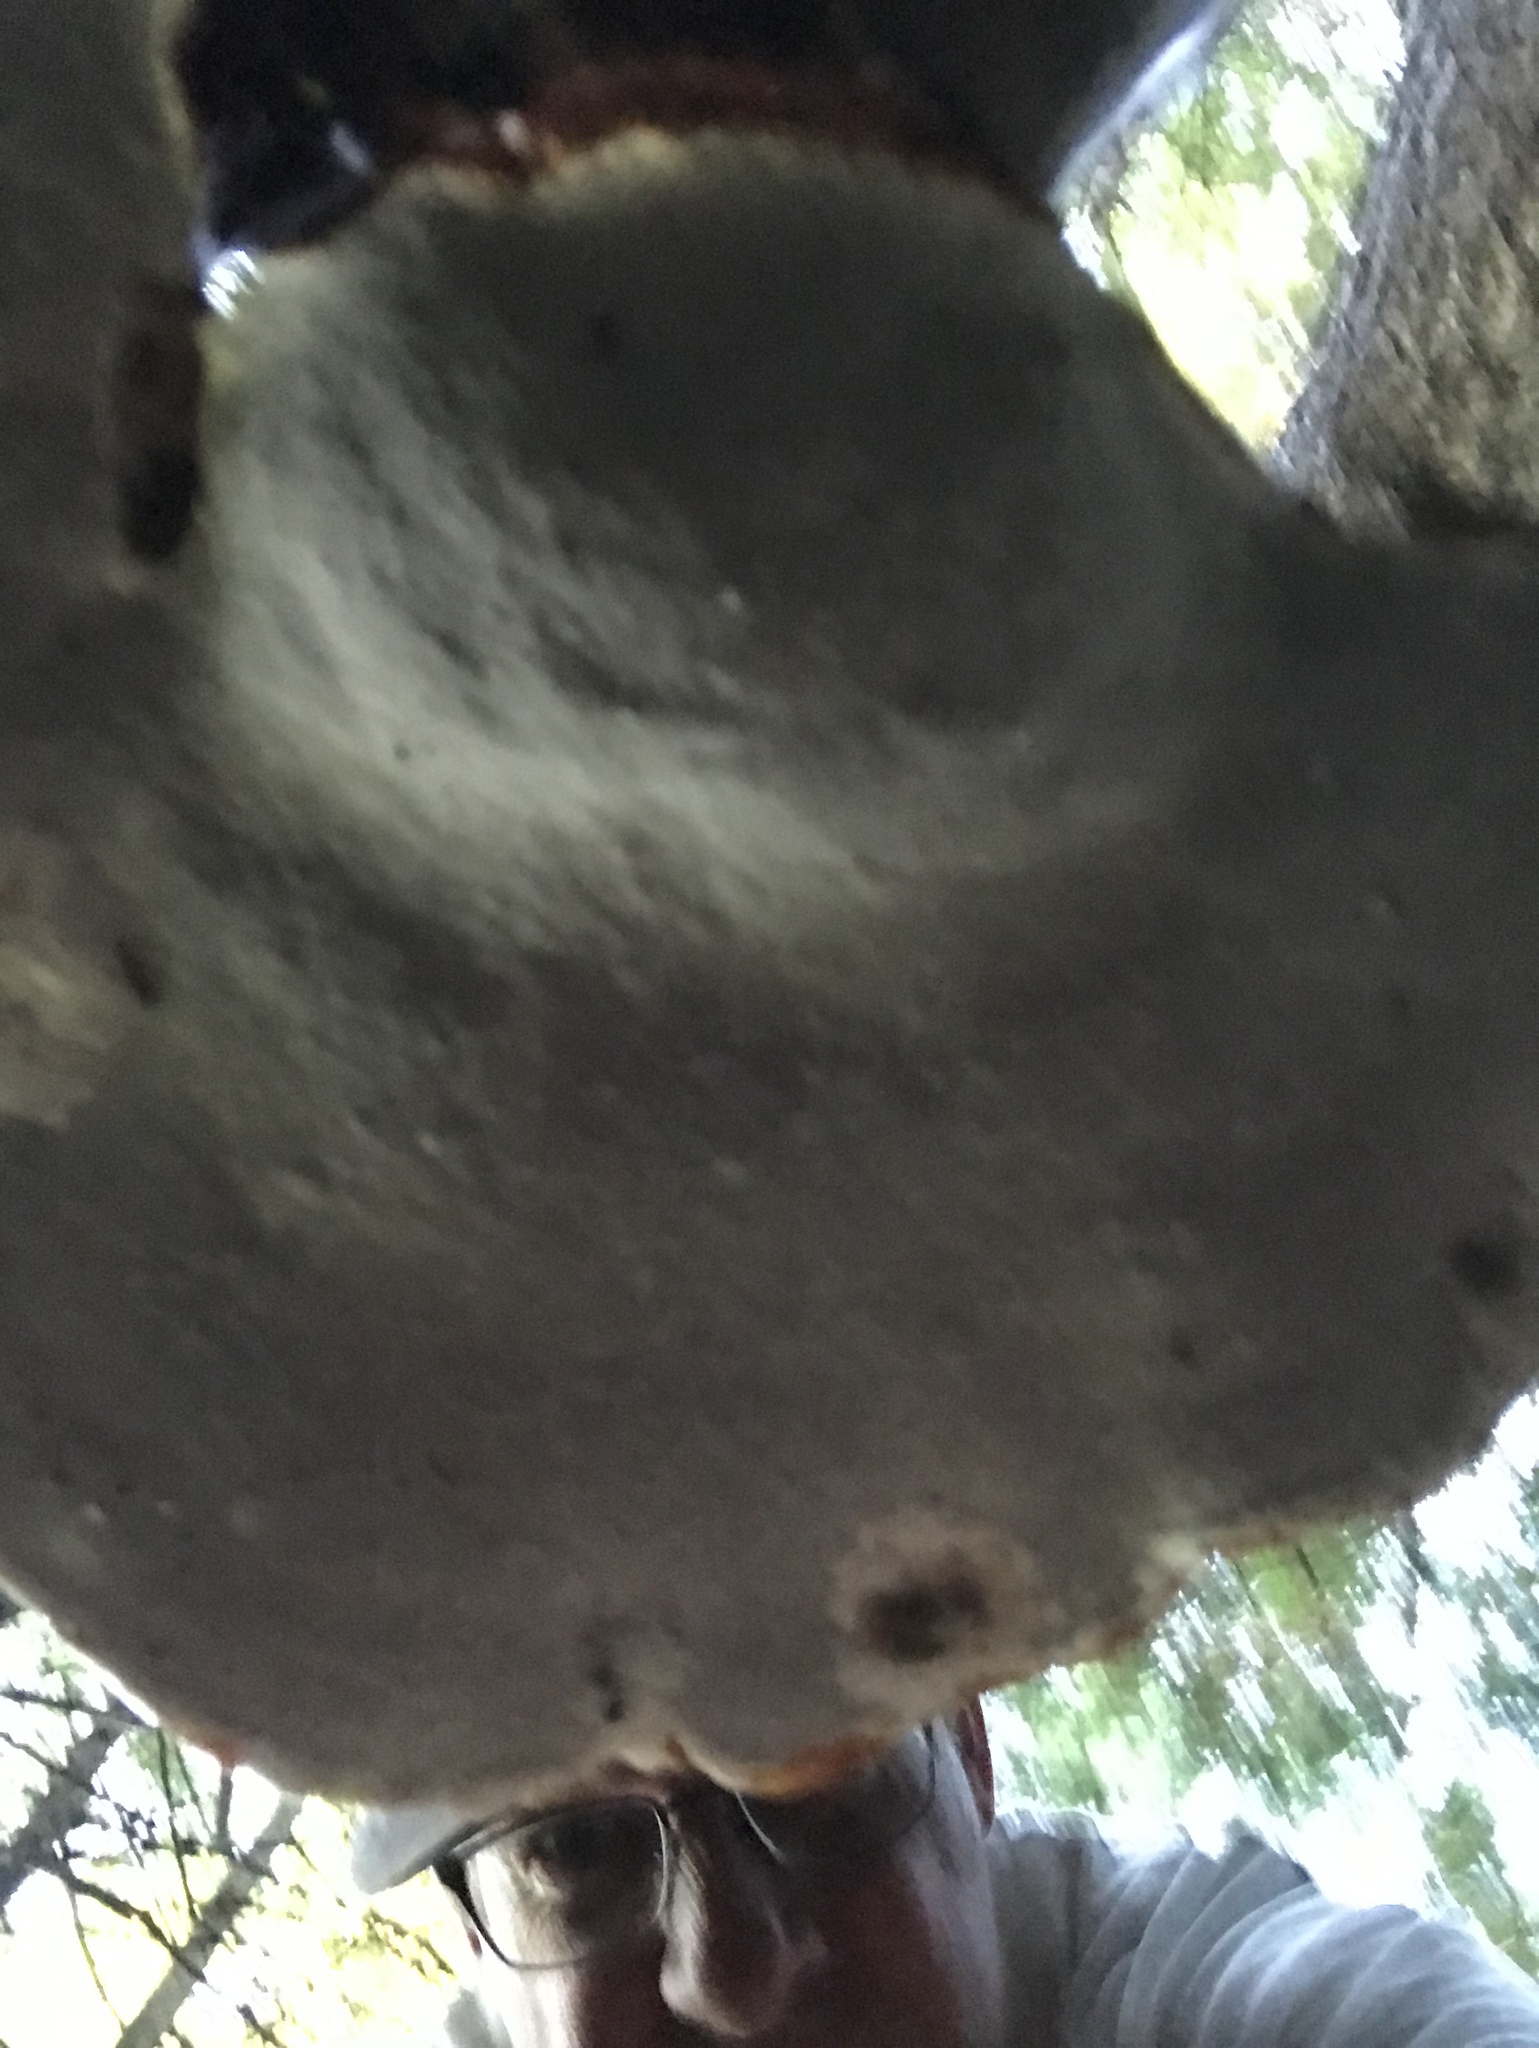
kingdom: Fungi
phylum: Basidiomycota
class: Agaricomycetes
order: Polyporales
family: Polyporaceae
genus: Ganoderma
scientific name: Ganoderma tsugae
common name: Hemlock varnish shelf
